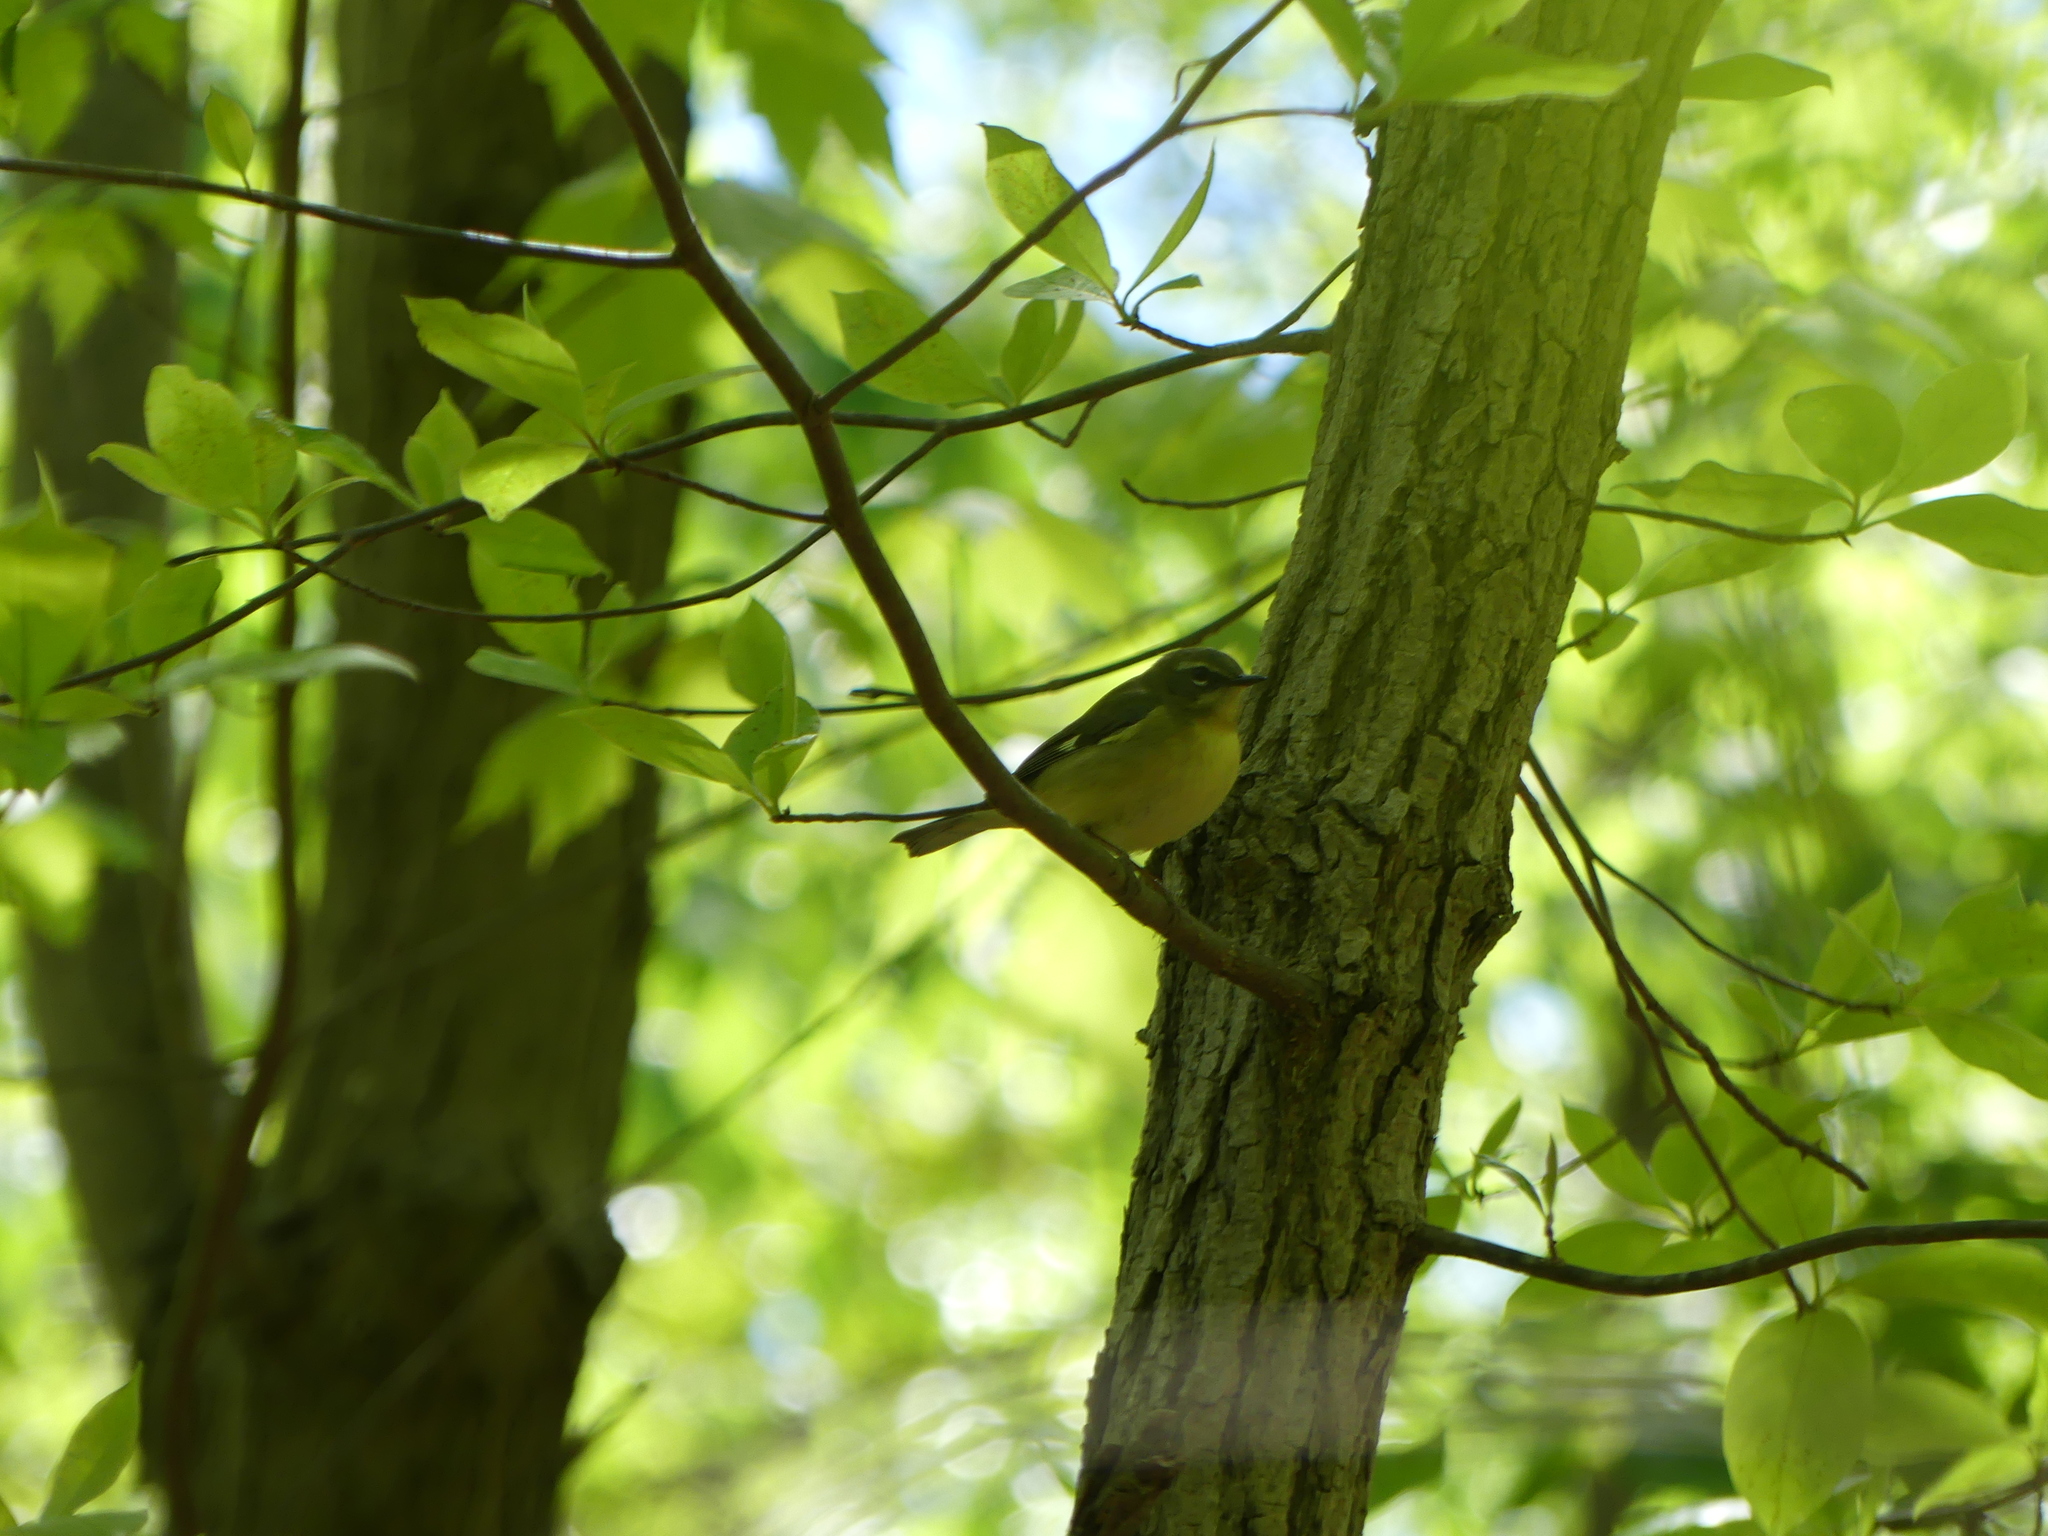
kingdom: Animalia
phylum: Chordata
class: Aves
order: Passeriformes
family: Parulidae
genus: Setophaga
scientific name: Setophaga caerulescens
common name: Black-throated blue warbler
